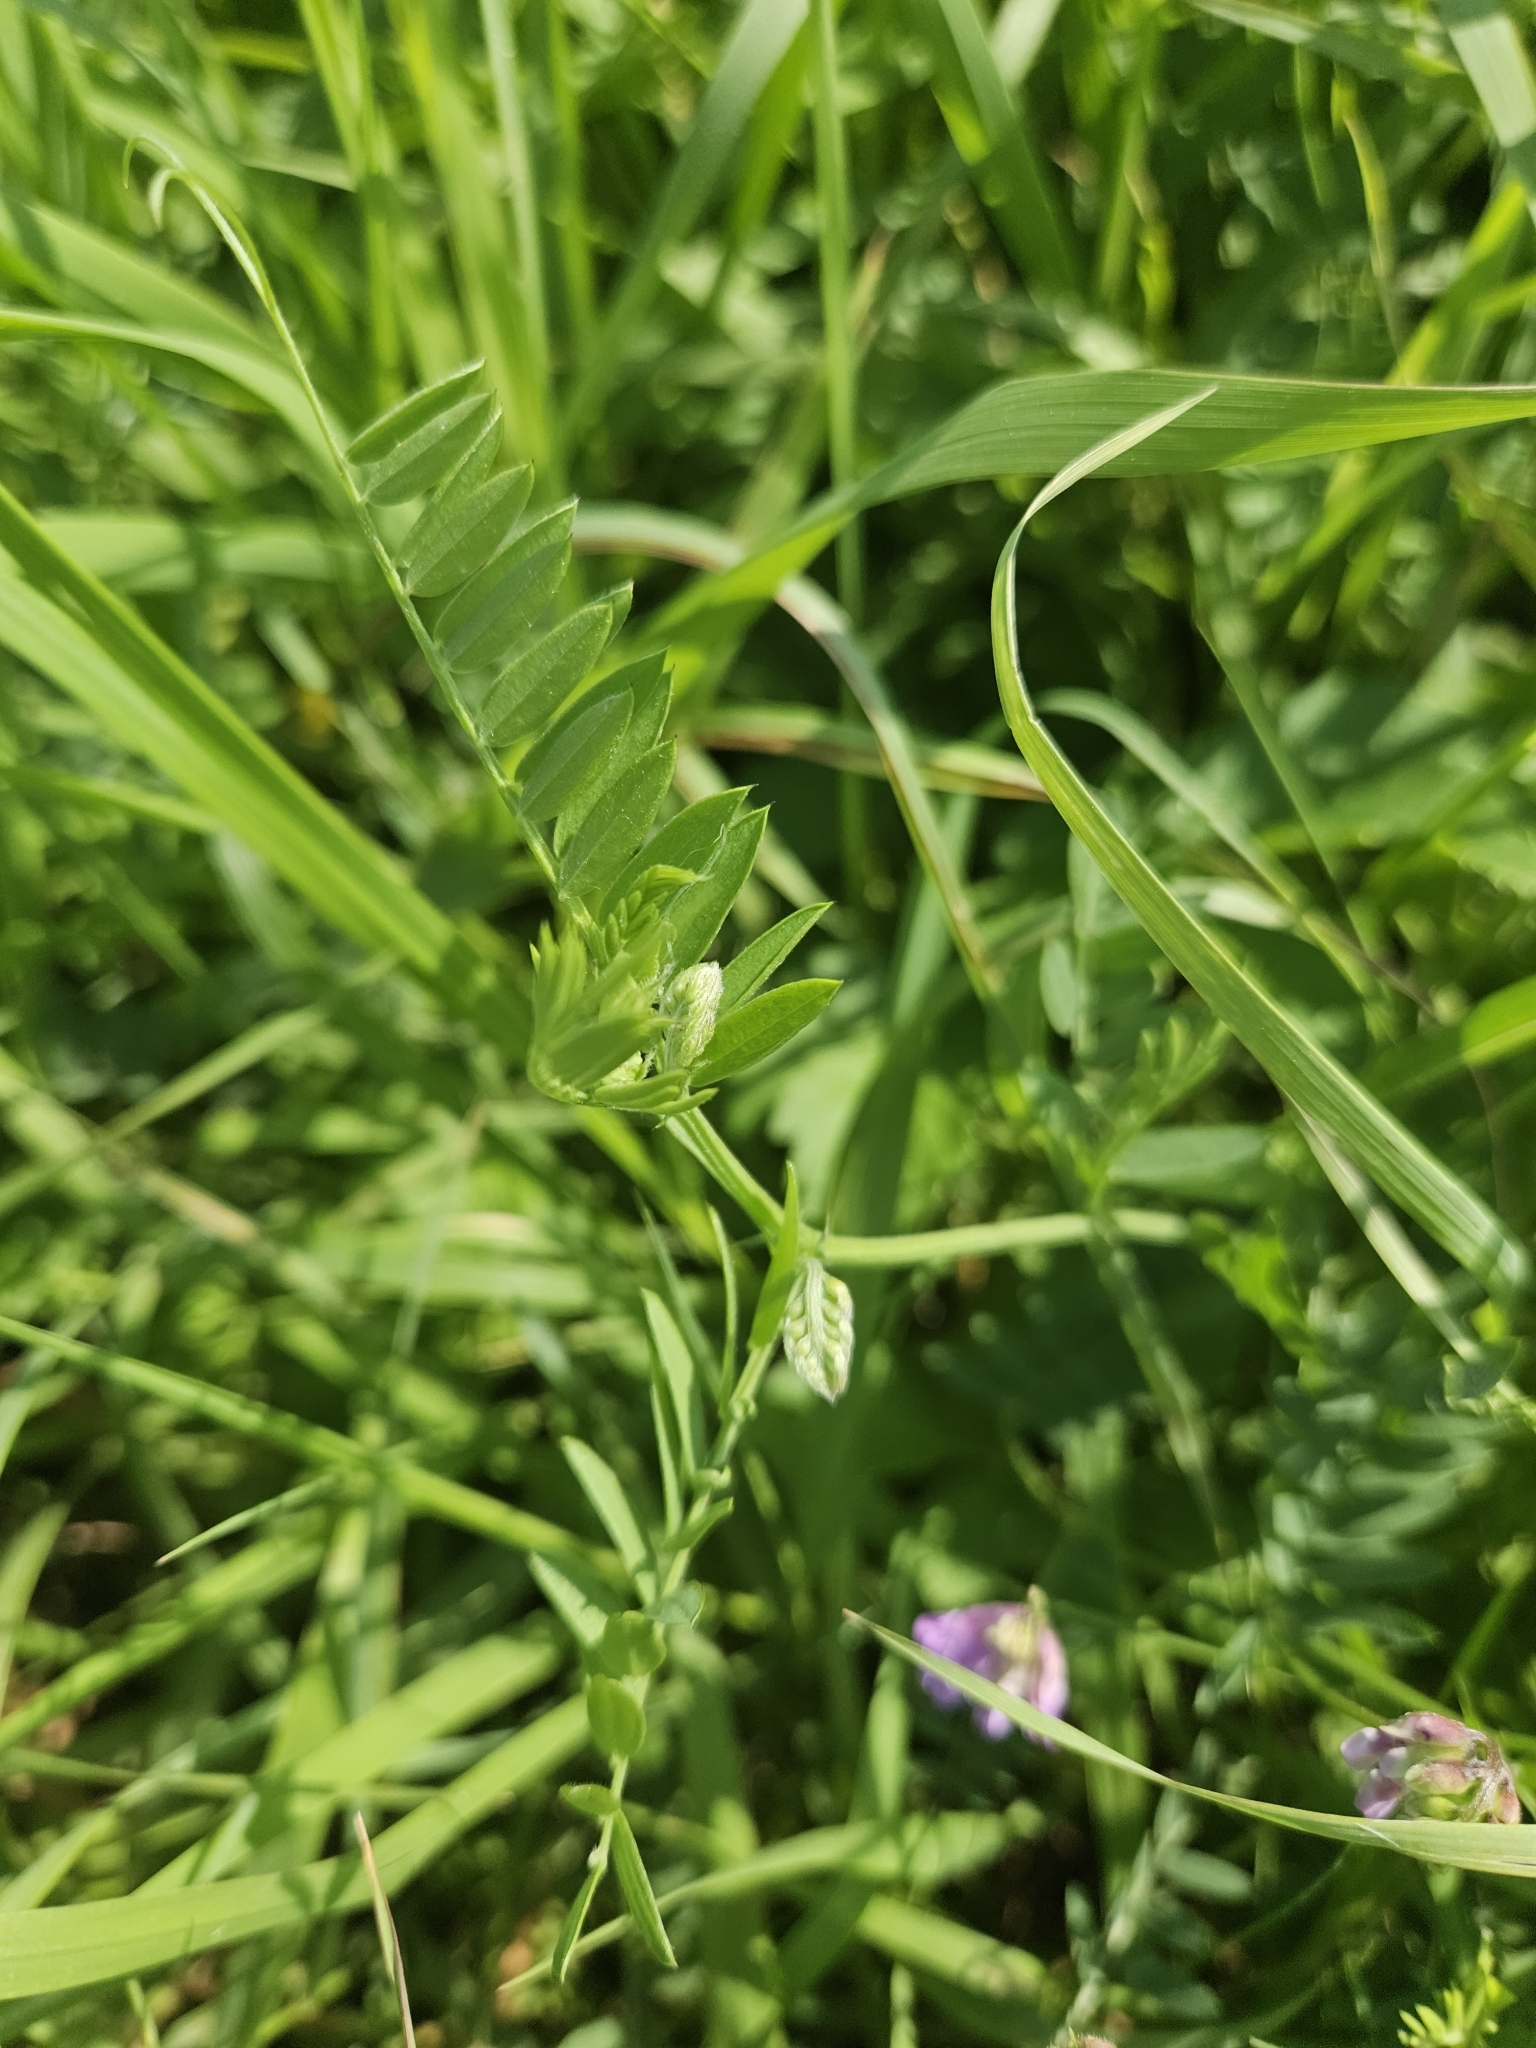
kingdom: Plantae
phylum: Tracheophyta
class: Magnoliopsida
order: Fabales
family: Fabaceae
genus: Vicia
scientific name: Vicia cracca
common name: Bird vetch
